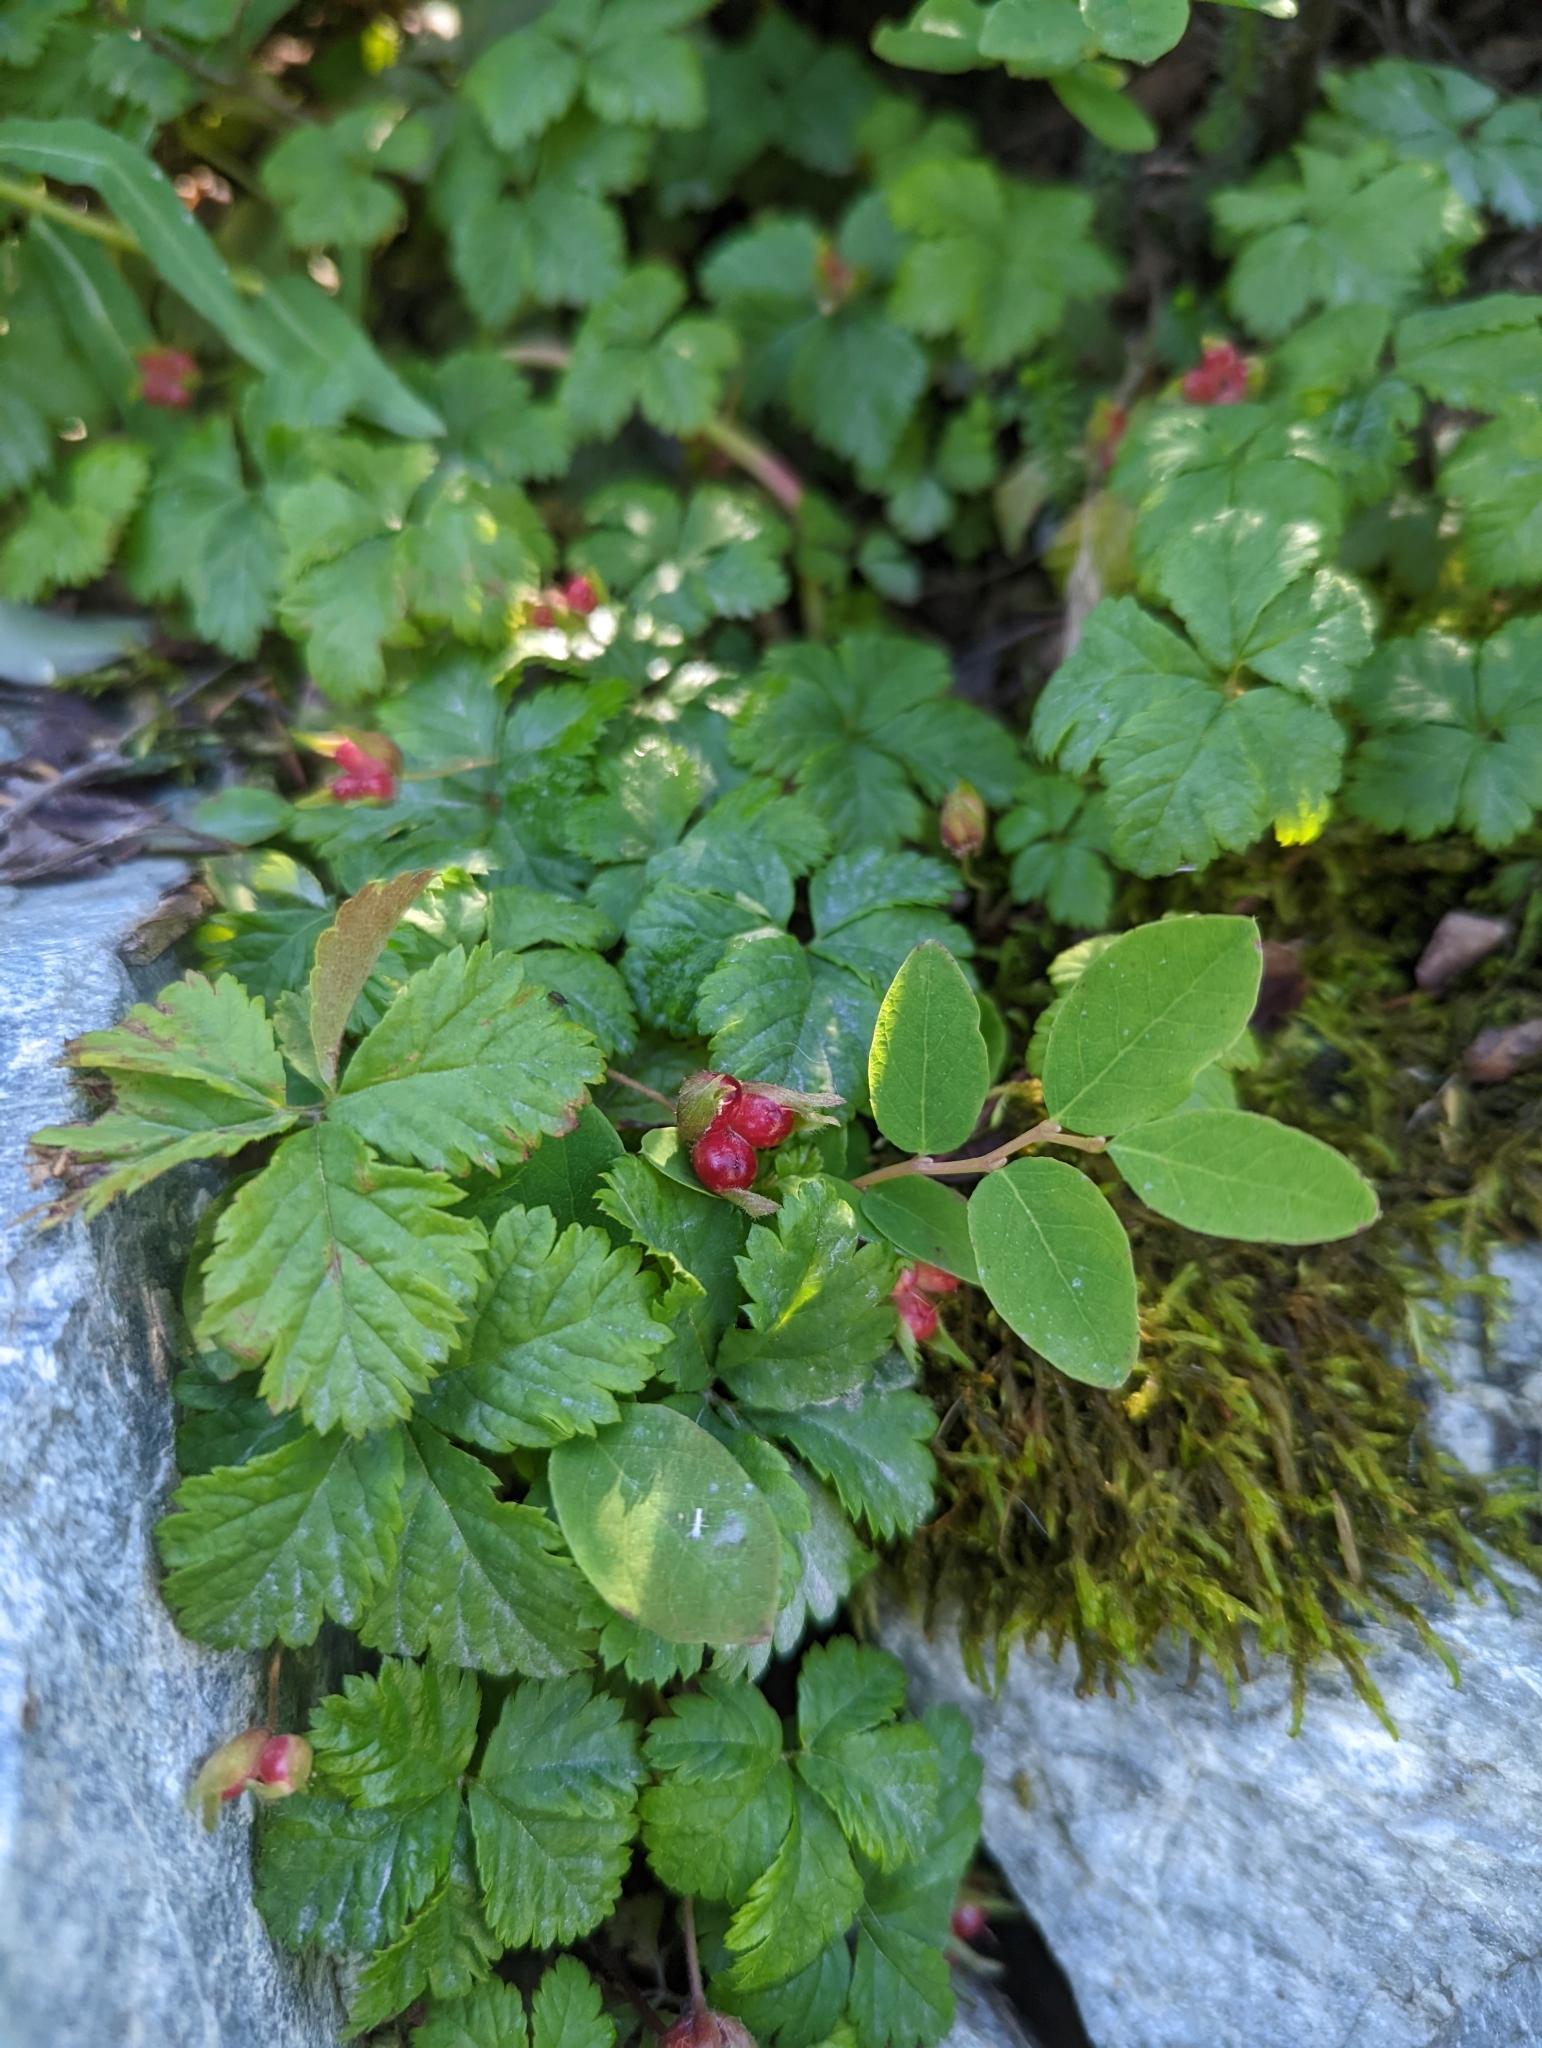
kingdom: Plantae
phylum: Tracheophyta
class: Magnoliopsida
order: Rosales
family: Rosaceae
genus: Rubus
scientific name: Rubus pedatus
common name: Creeping raspberry
